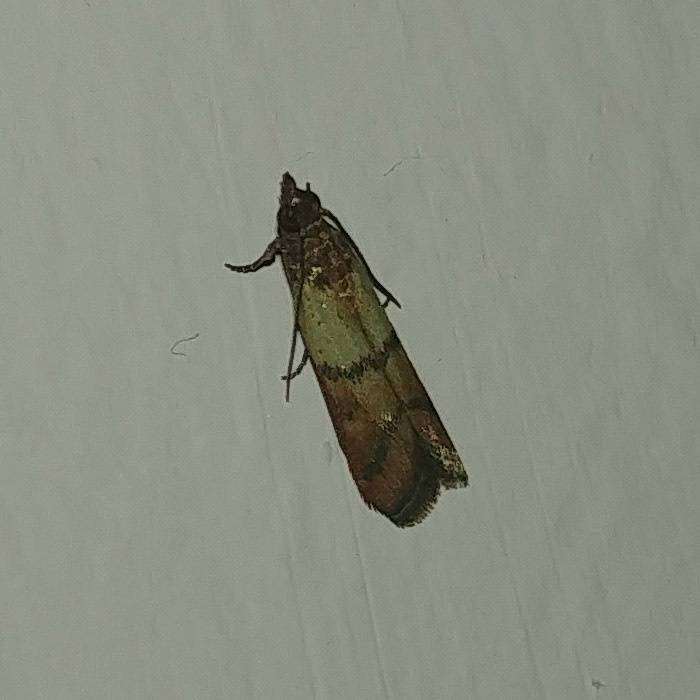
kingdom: Animalia
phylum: Arthropoda
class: Insecta
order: Lepidoptera
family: Pyralidae
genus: Plodia
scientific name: Plodia interpunctella
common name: Indian meal moth
